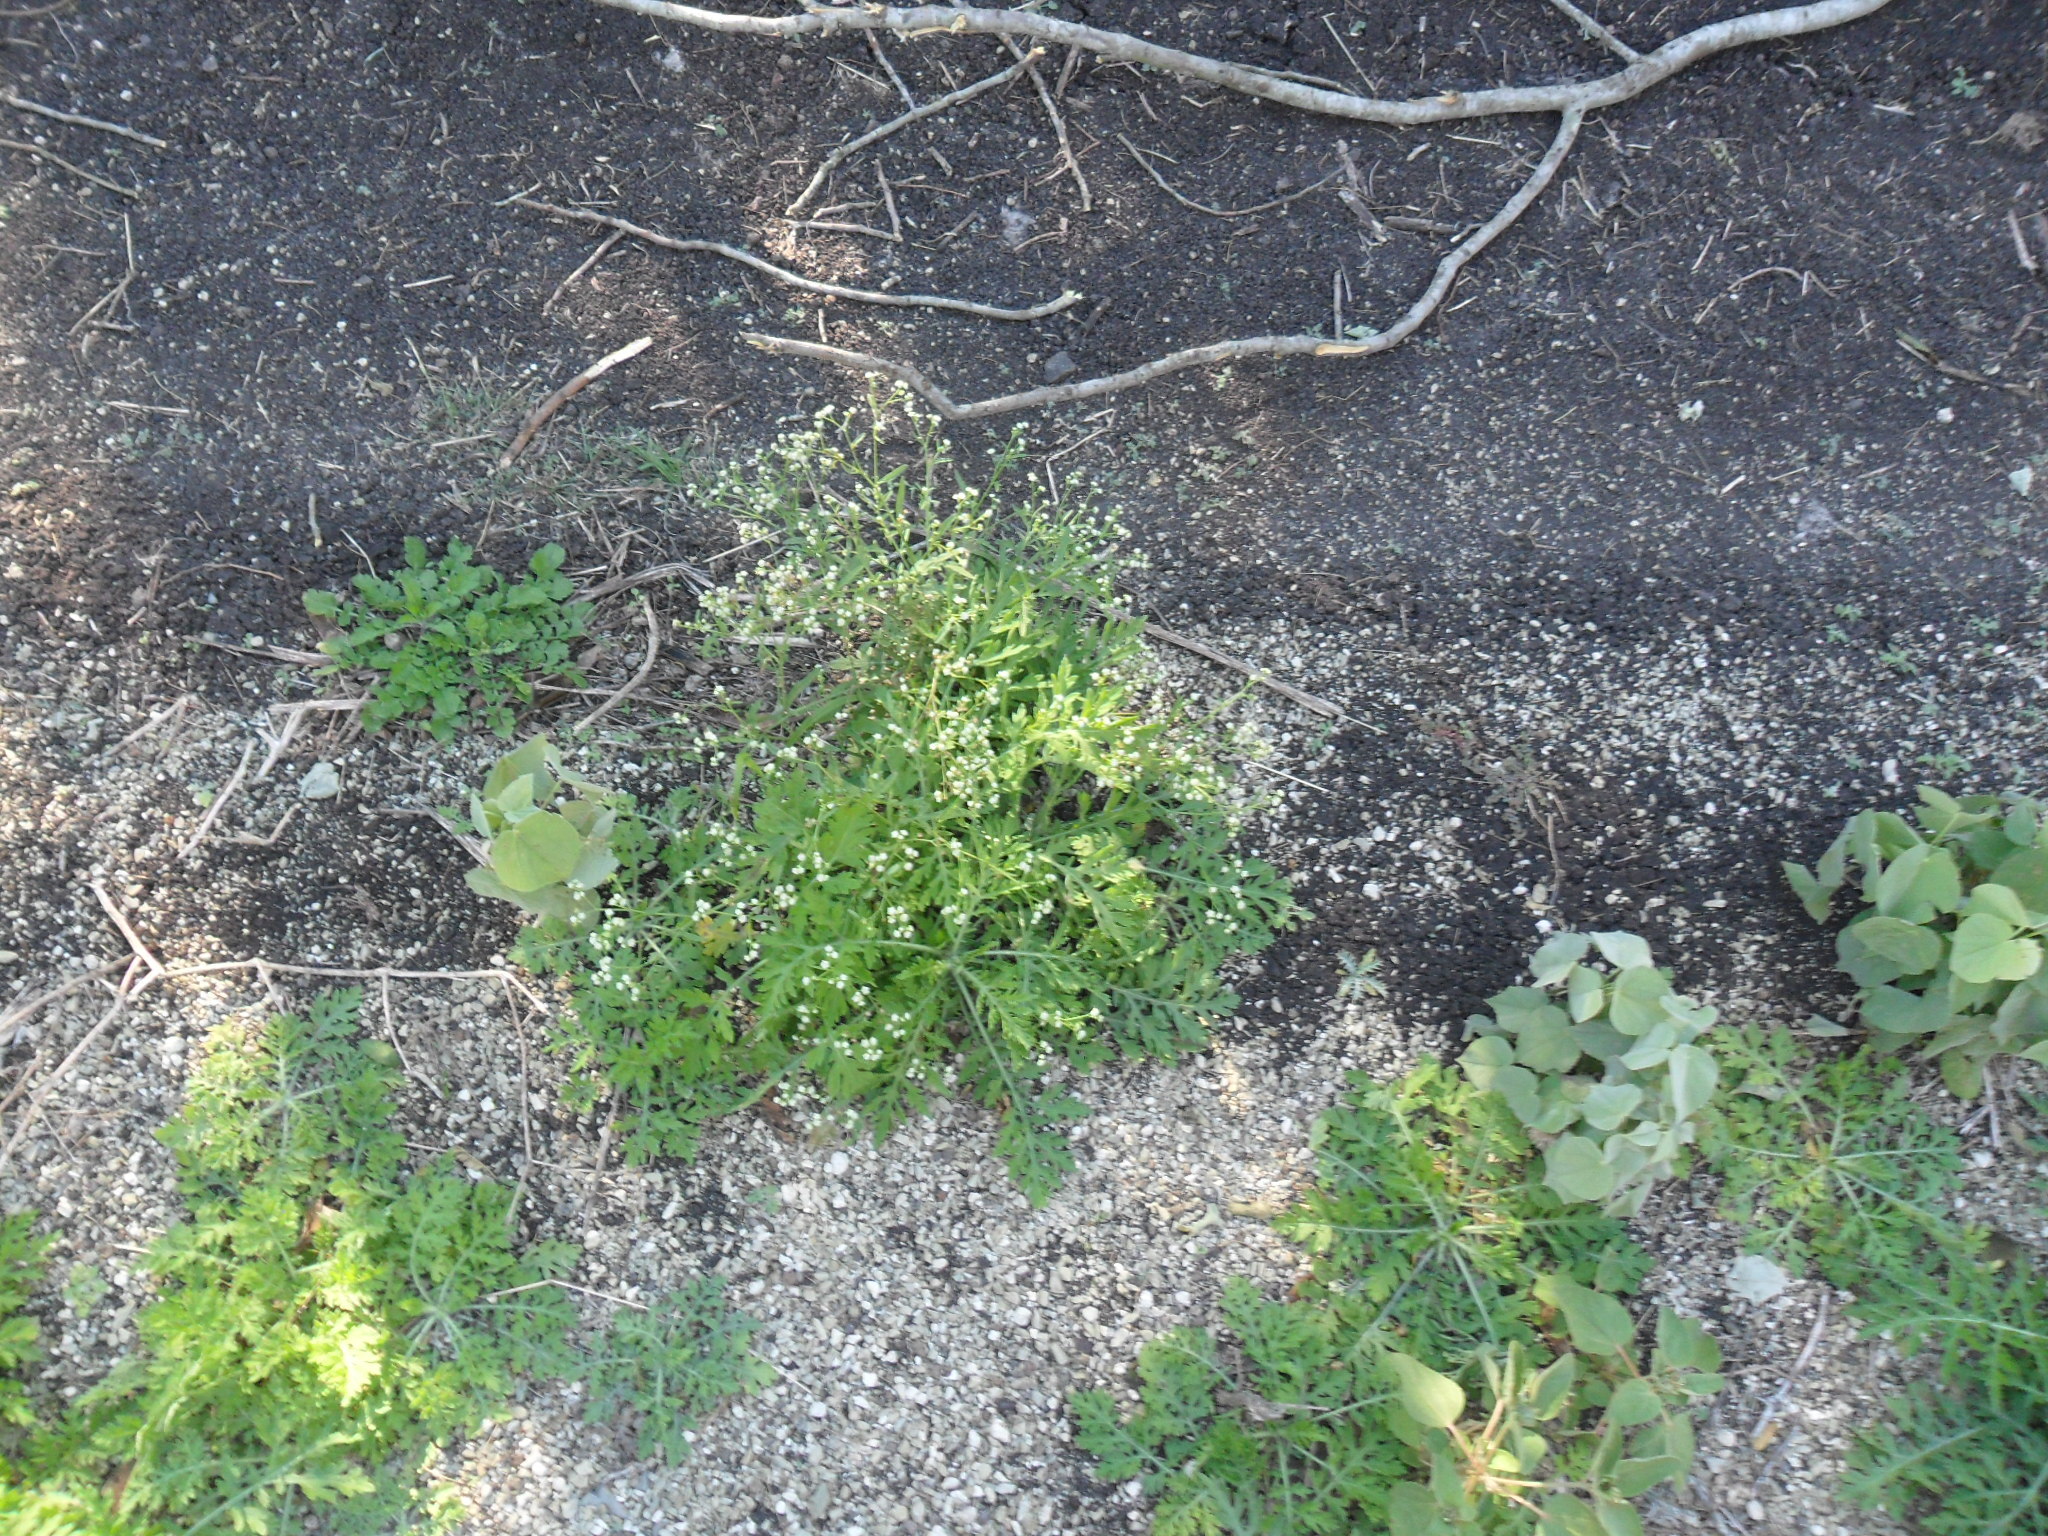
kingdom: Plantae
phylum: Tracheophyta
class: Magnoliopsida
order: Asterales
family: Asteraceae
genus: Parthenium
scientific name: Parthenium hysterophorus
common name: Santa maria feverfew
